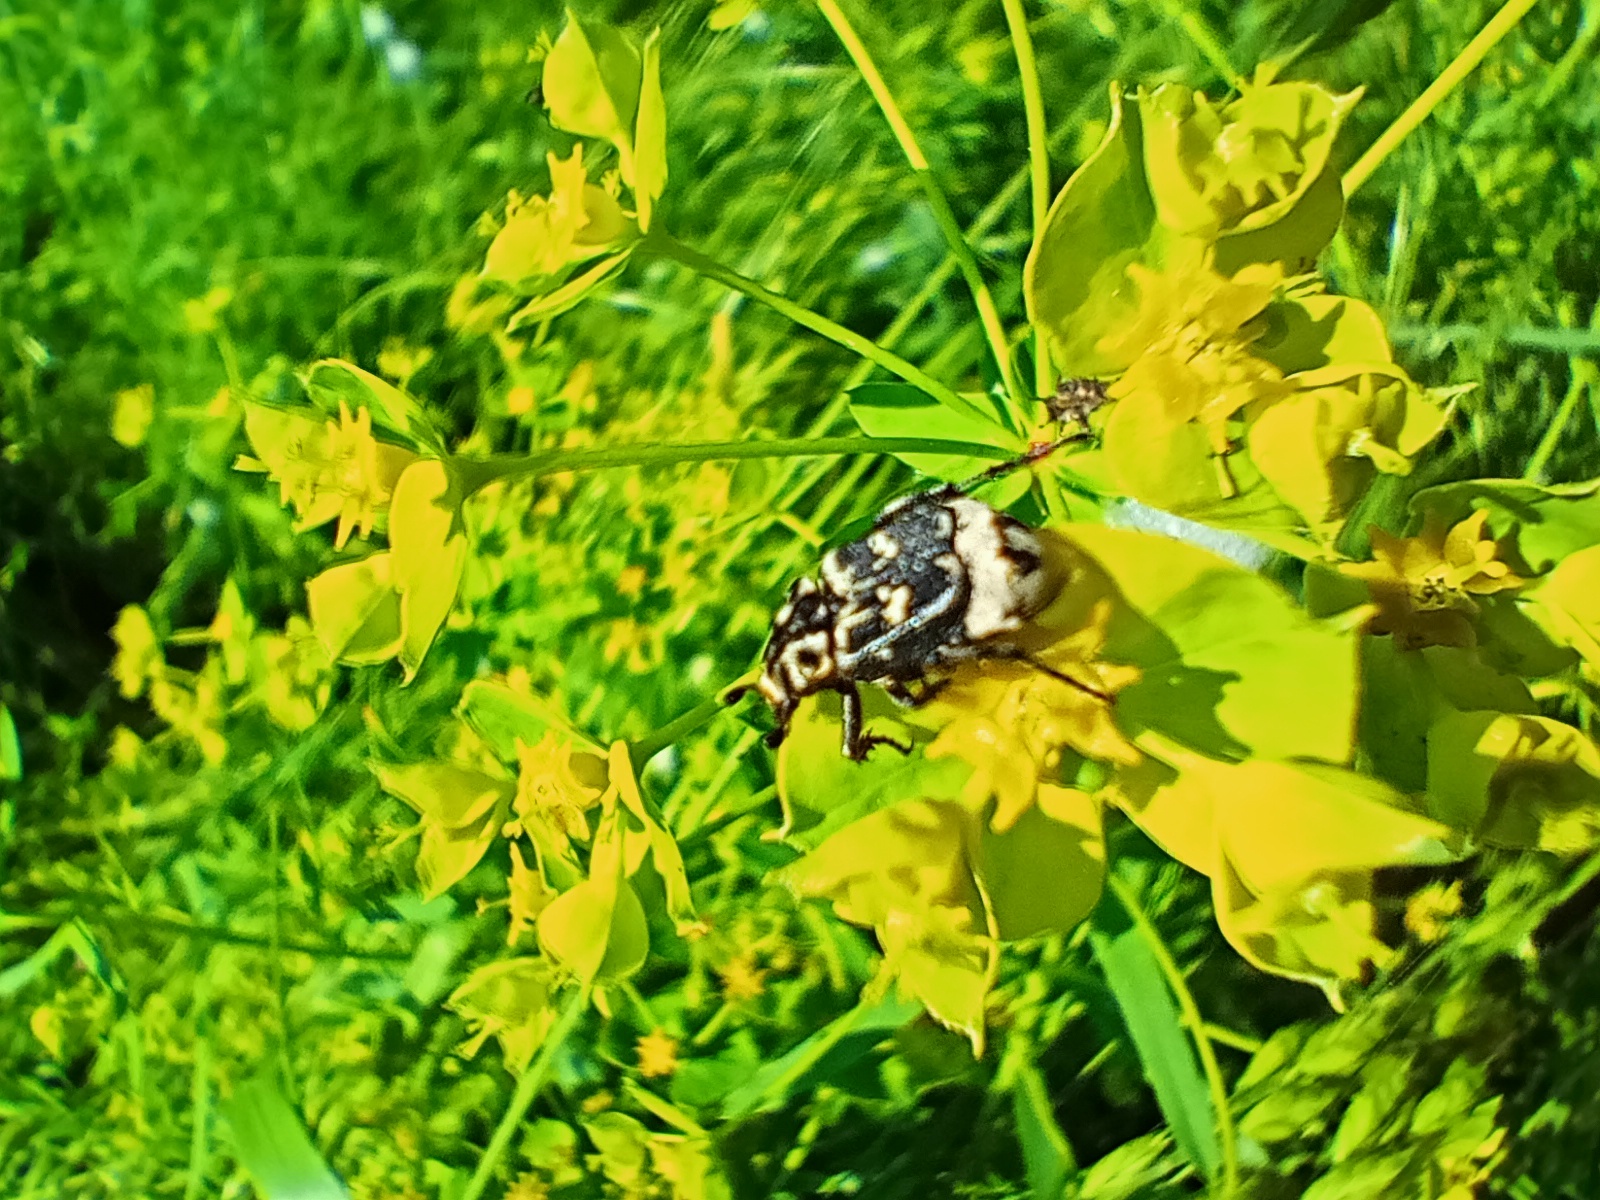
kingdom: Animalia
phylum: Arthropoda
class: Insecta
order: Coleoptera
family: Scarabaeidae
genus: Valgus
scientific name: Valgus hemipterus
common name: Bug flower chafer
